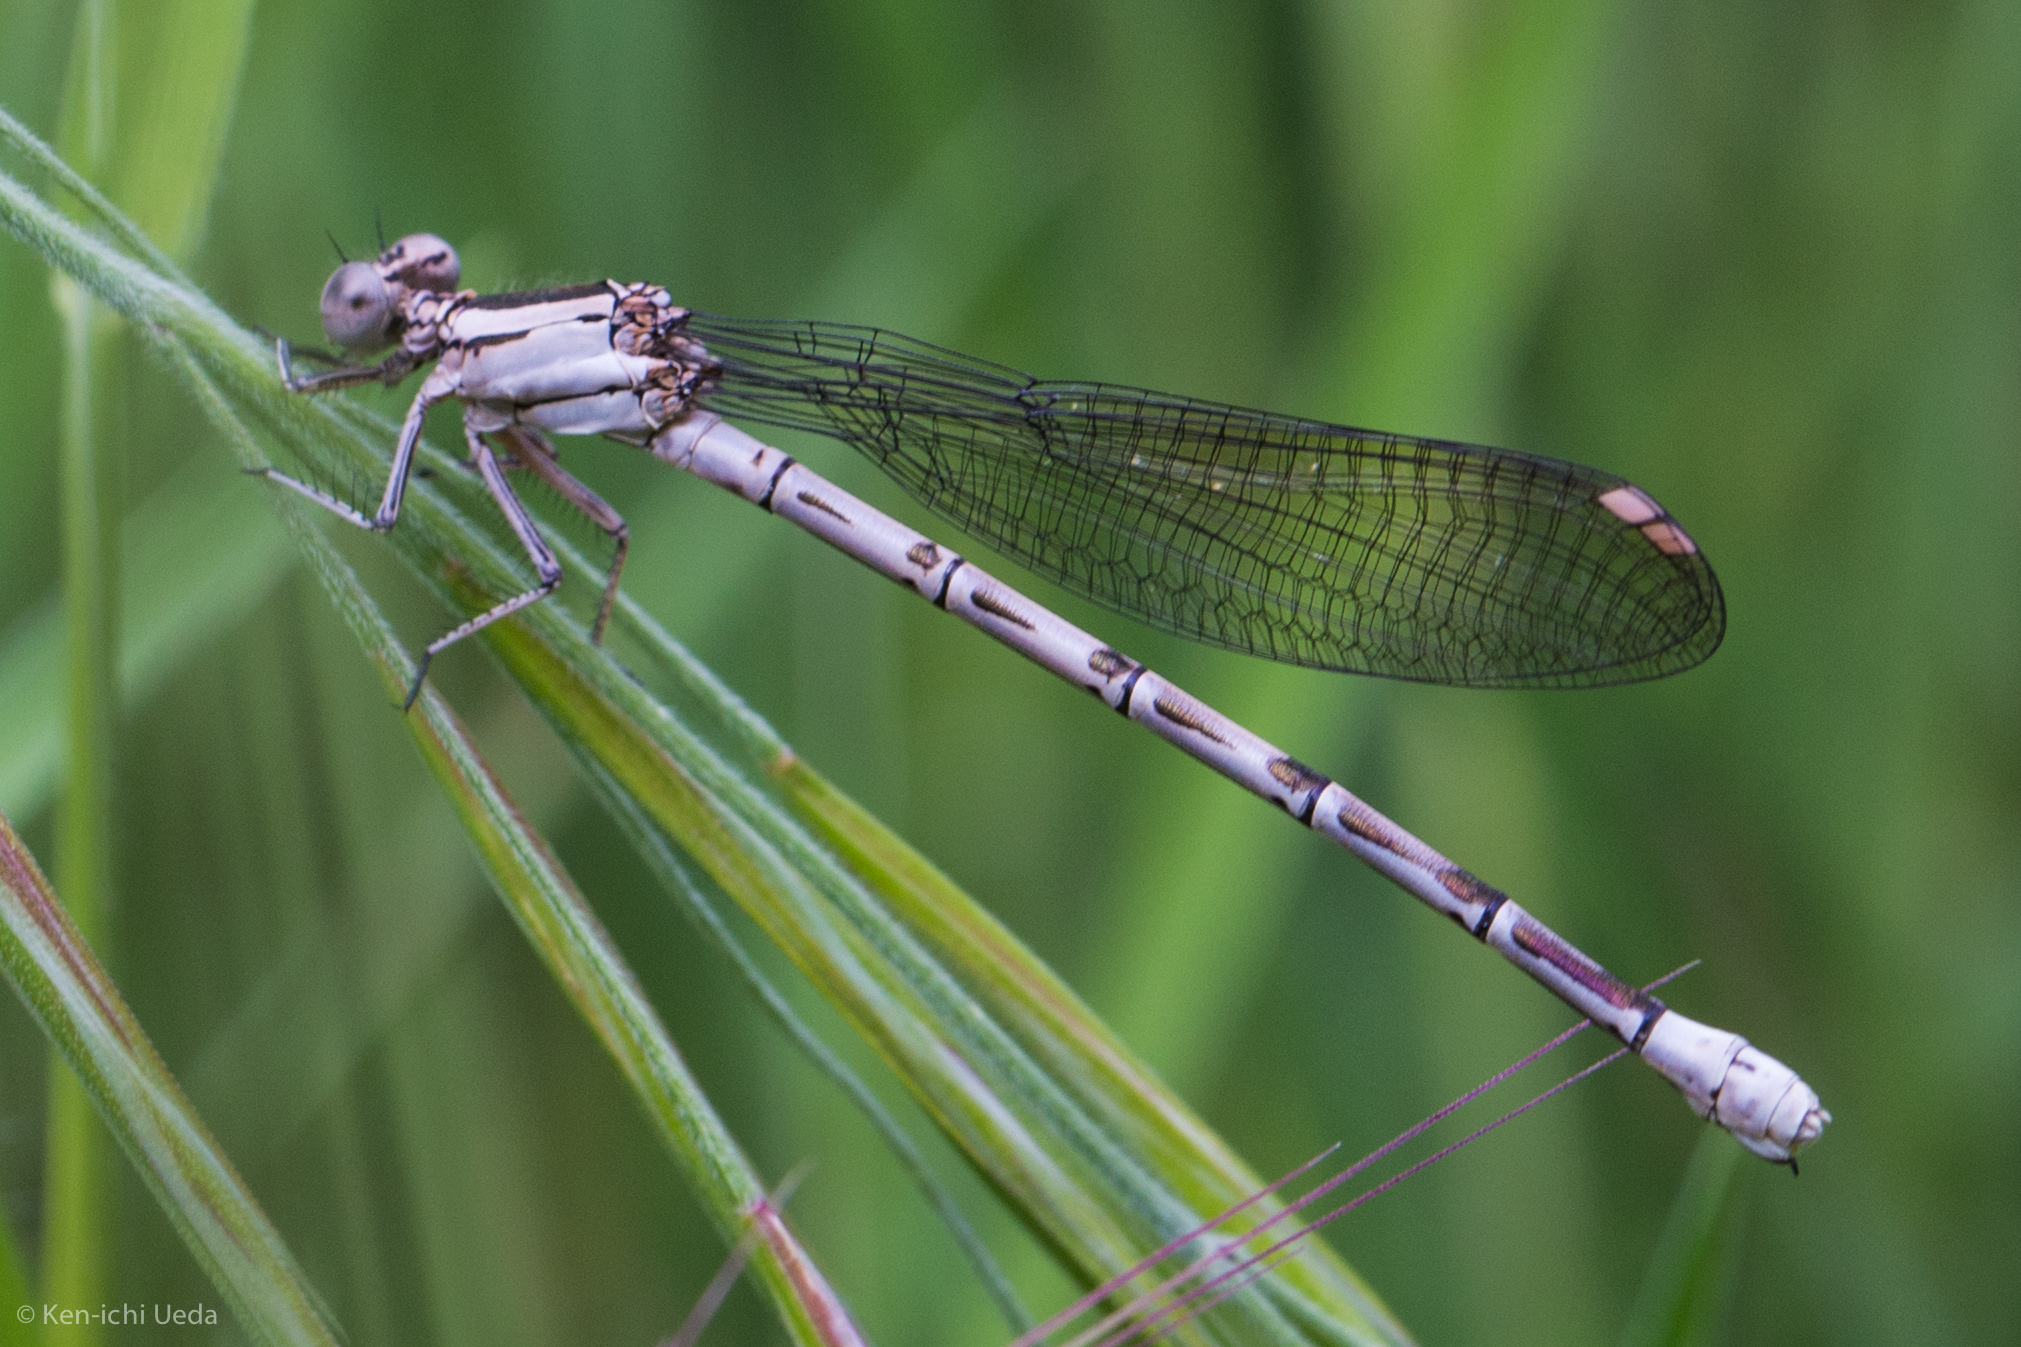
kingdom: Animalia
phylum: Arthropoda
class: Insecta
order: Odonata
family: Coenagrionidae
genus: Argia
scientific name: Argia vivida
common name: Vivid dancer
